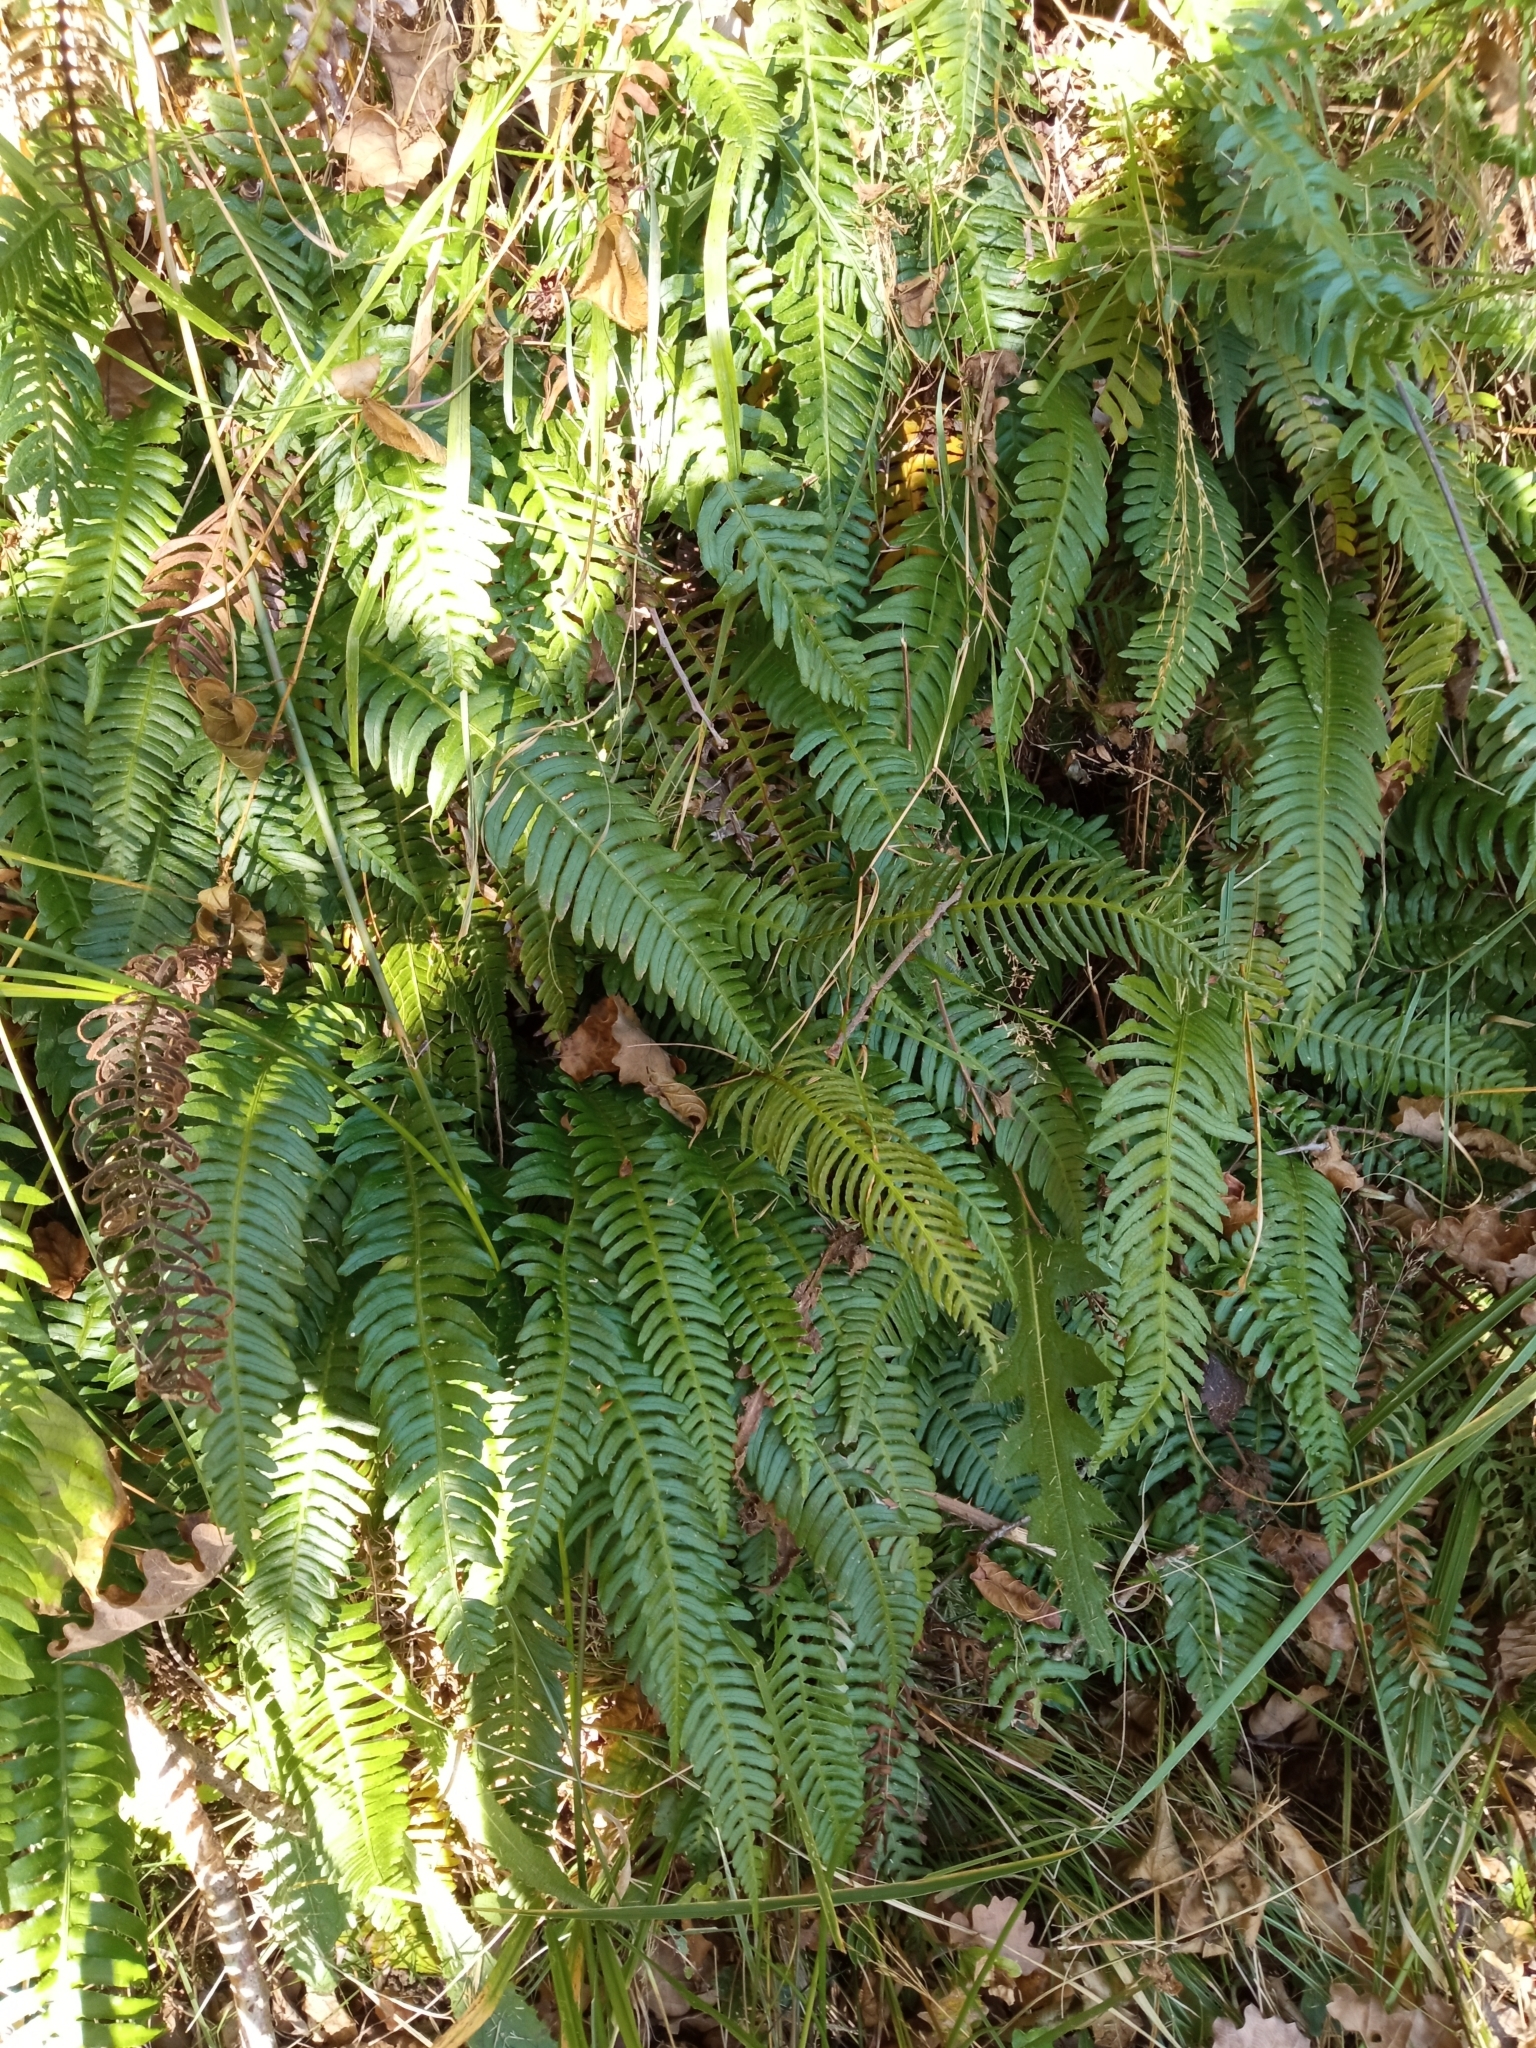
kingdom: Plantae
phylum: Tracheophyta
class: Polypodiopsida
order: Polypodiales
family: Blechnaceae
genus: Struthiopteris
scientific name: Struthiopteris spicant
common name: Deer fern
